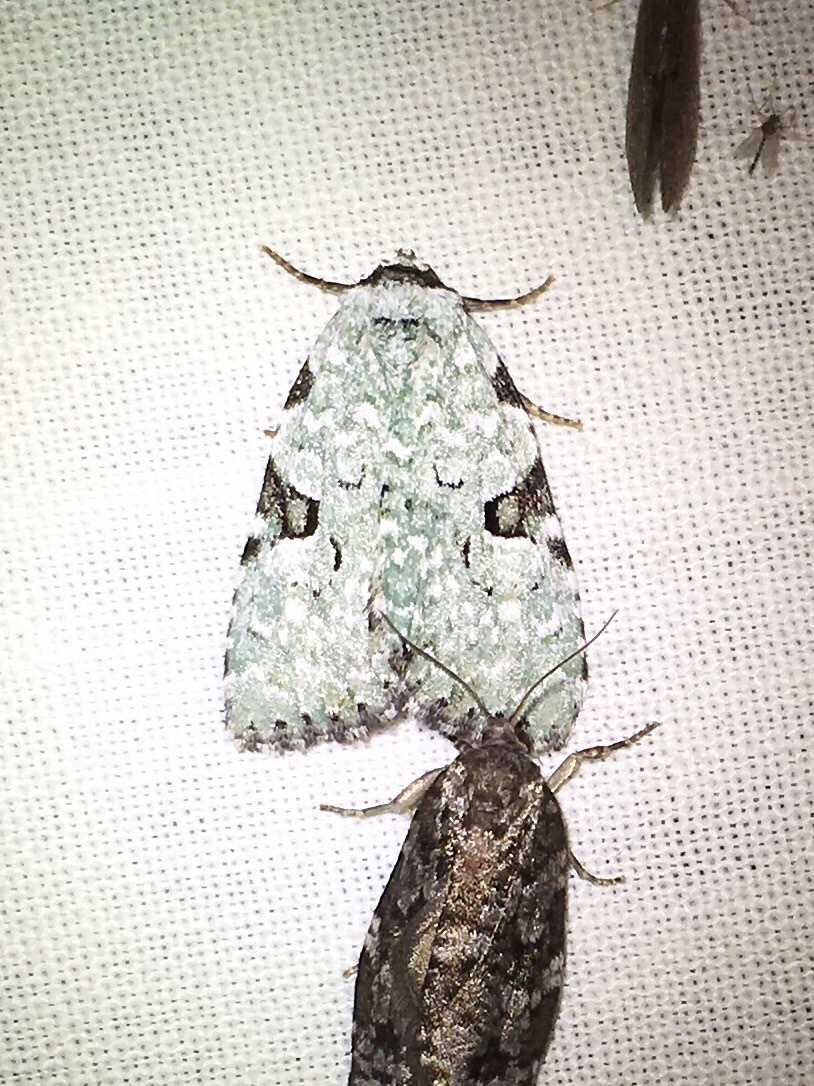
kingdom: Animalia
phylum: Arthropoda
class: Insecta
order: Lepidoptera
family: Noctuidae
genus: Leuconycta
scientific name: Leuconycta diphteroides
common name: Green leuconycta moth
